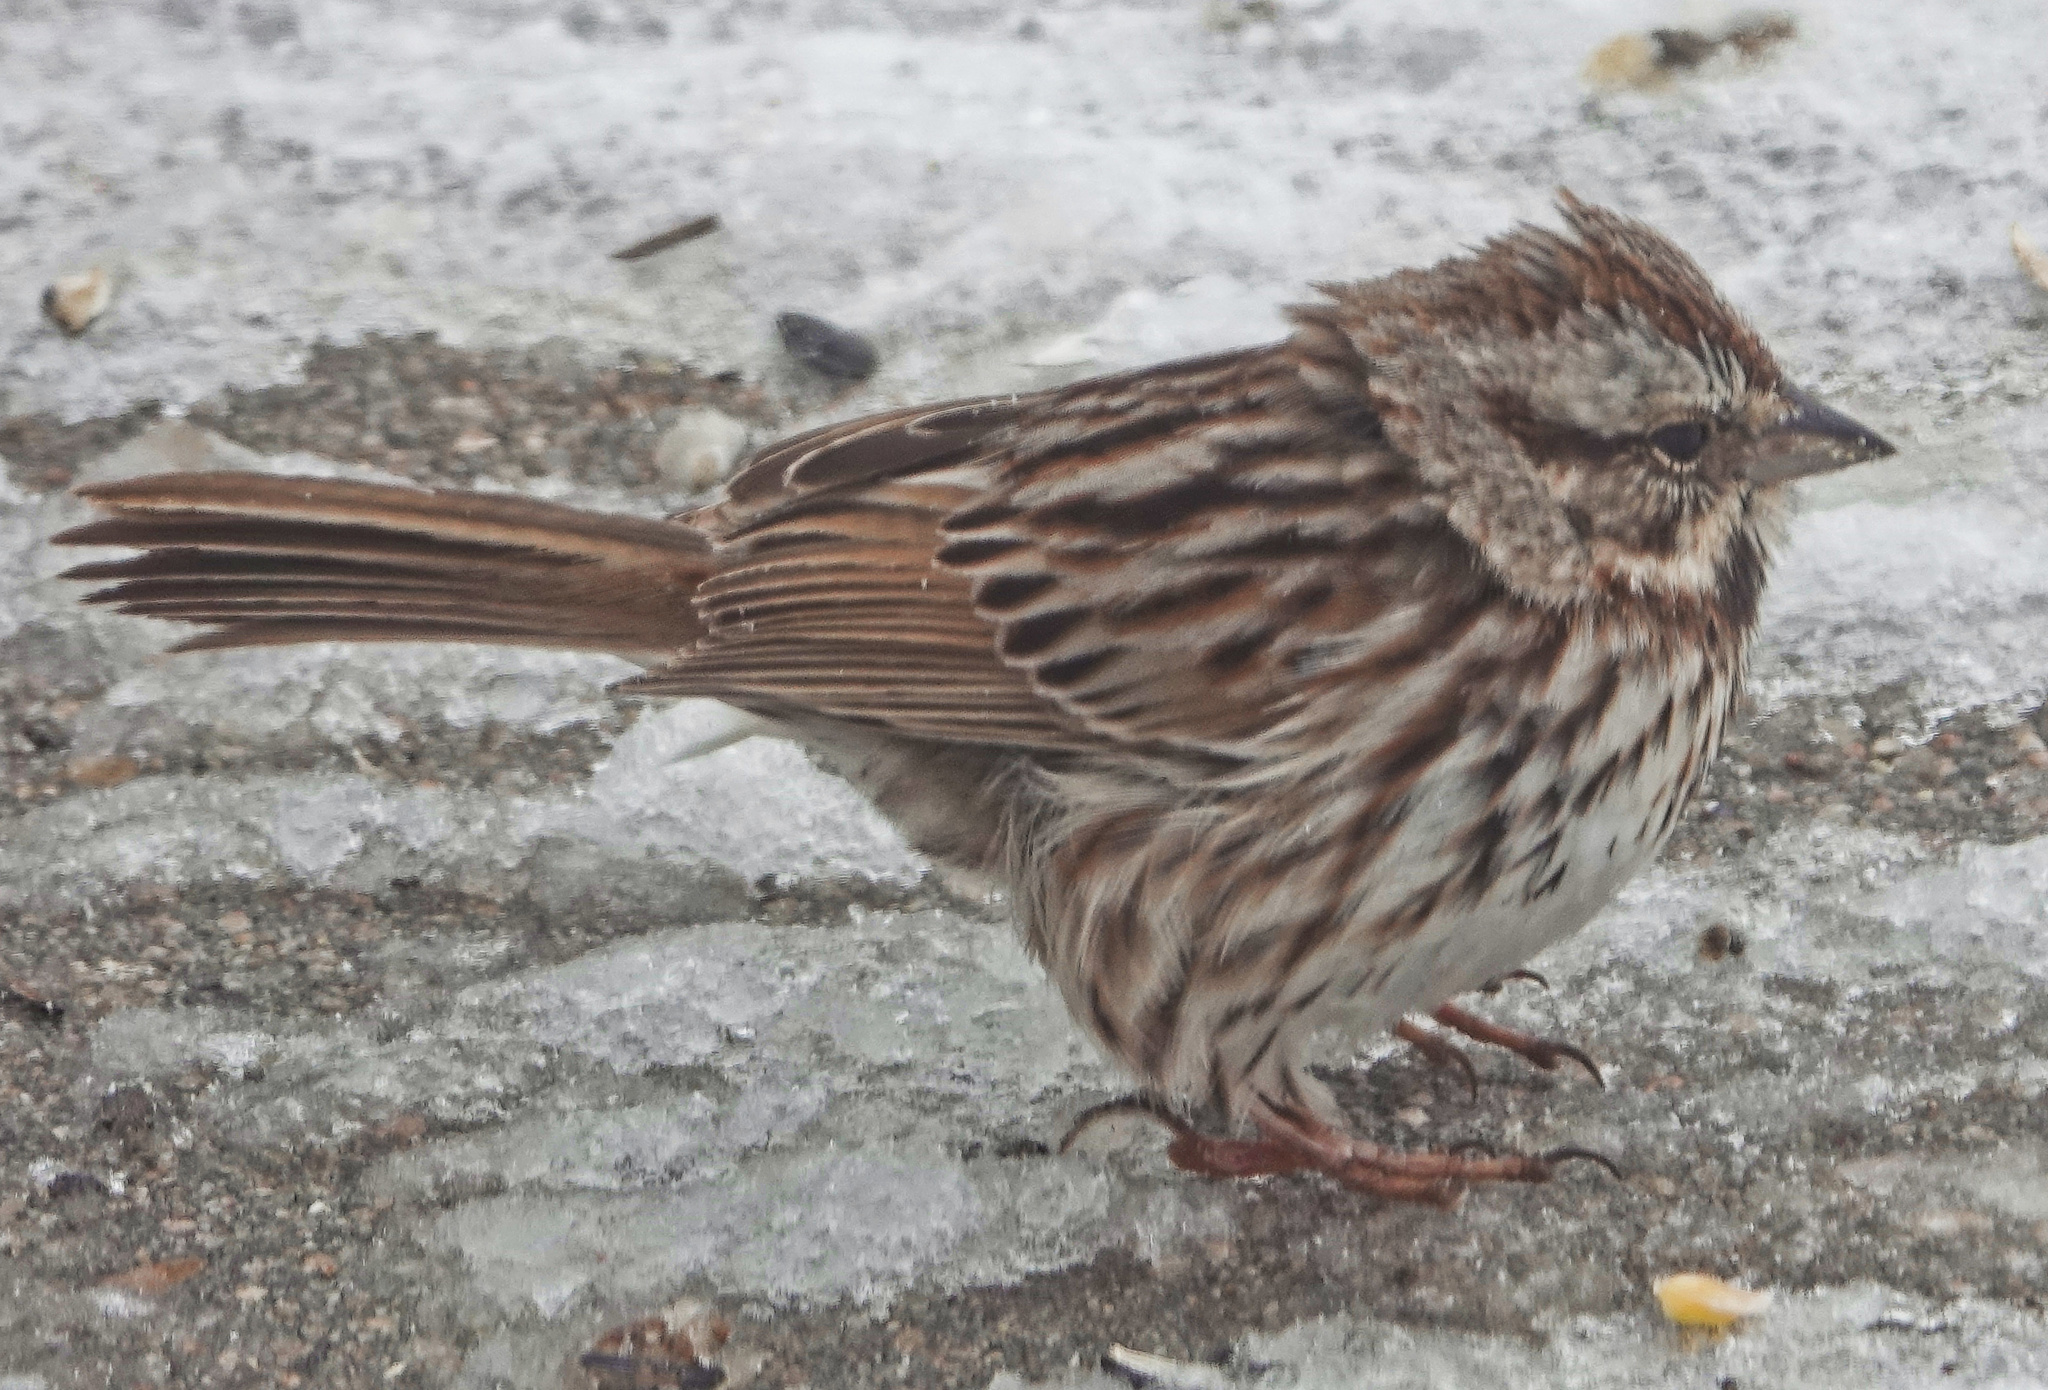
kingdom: Animalia
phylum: Chordata
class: Aves
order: Passeriformes
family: Passerellidae
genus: Melospiza
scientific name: Melospiza melodia
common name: Song sparrow
